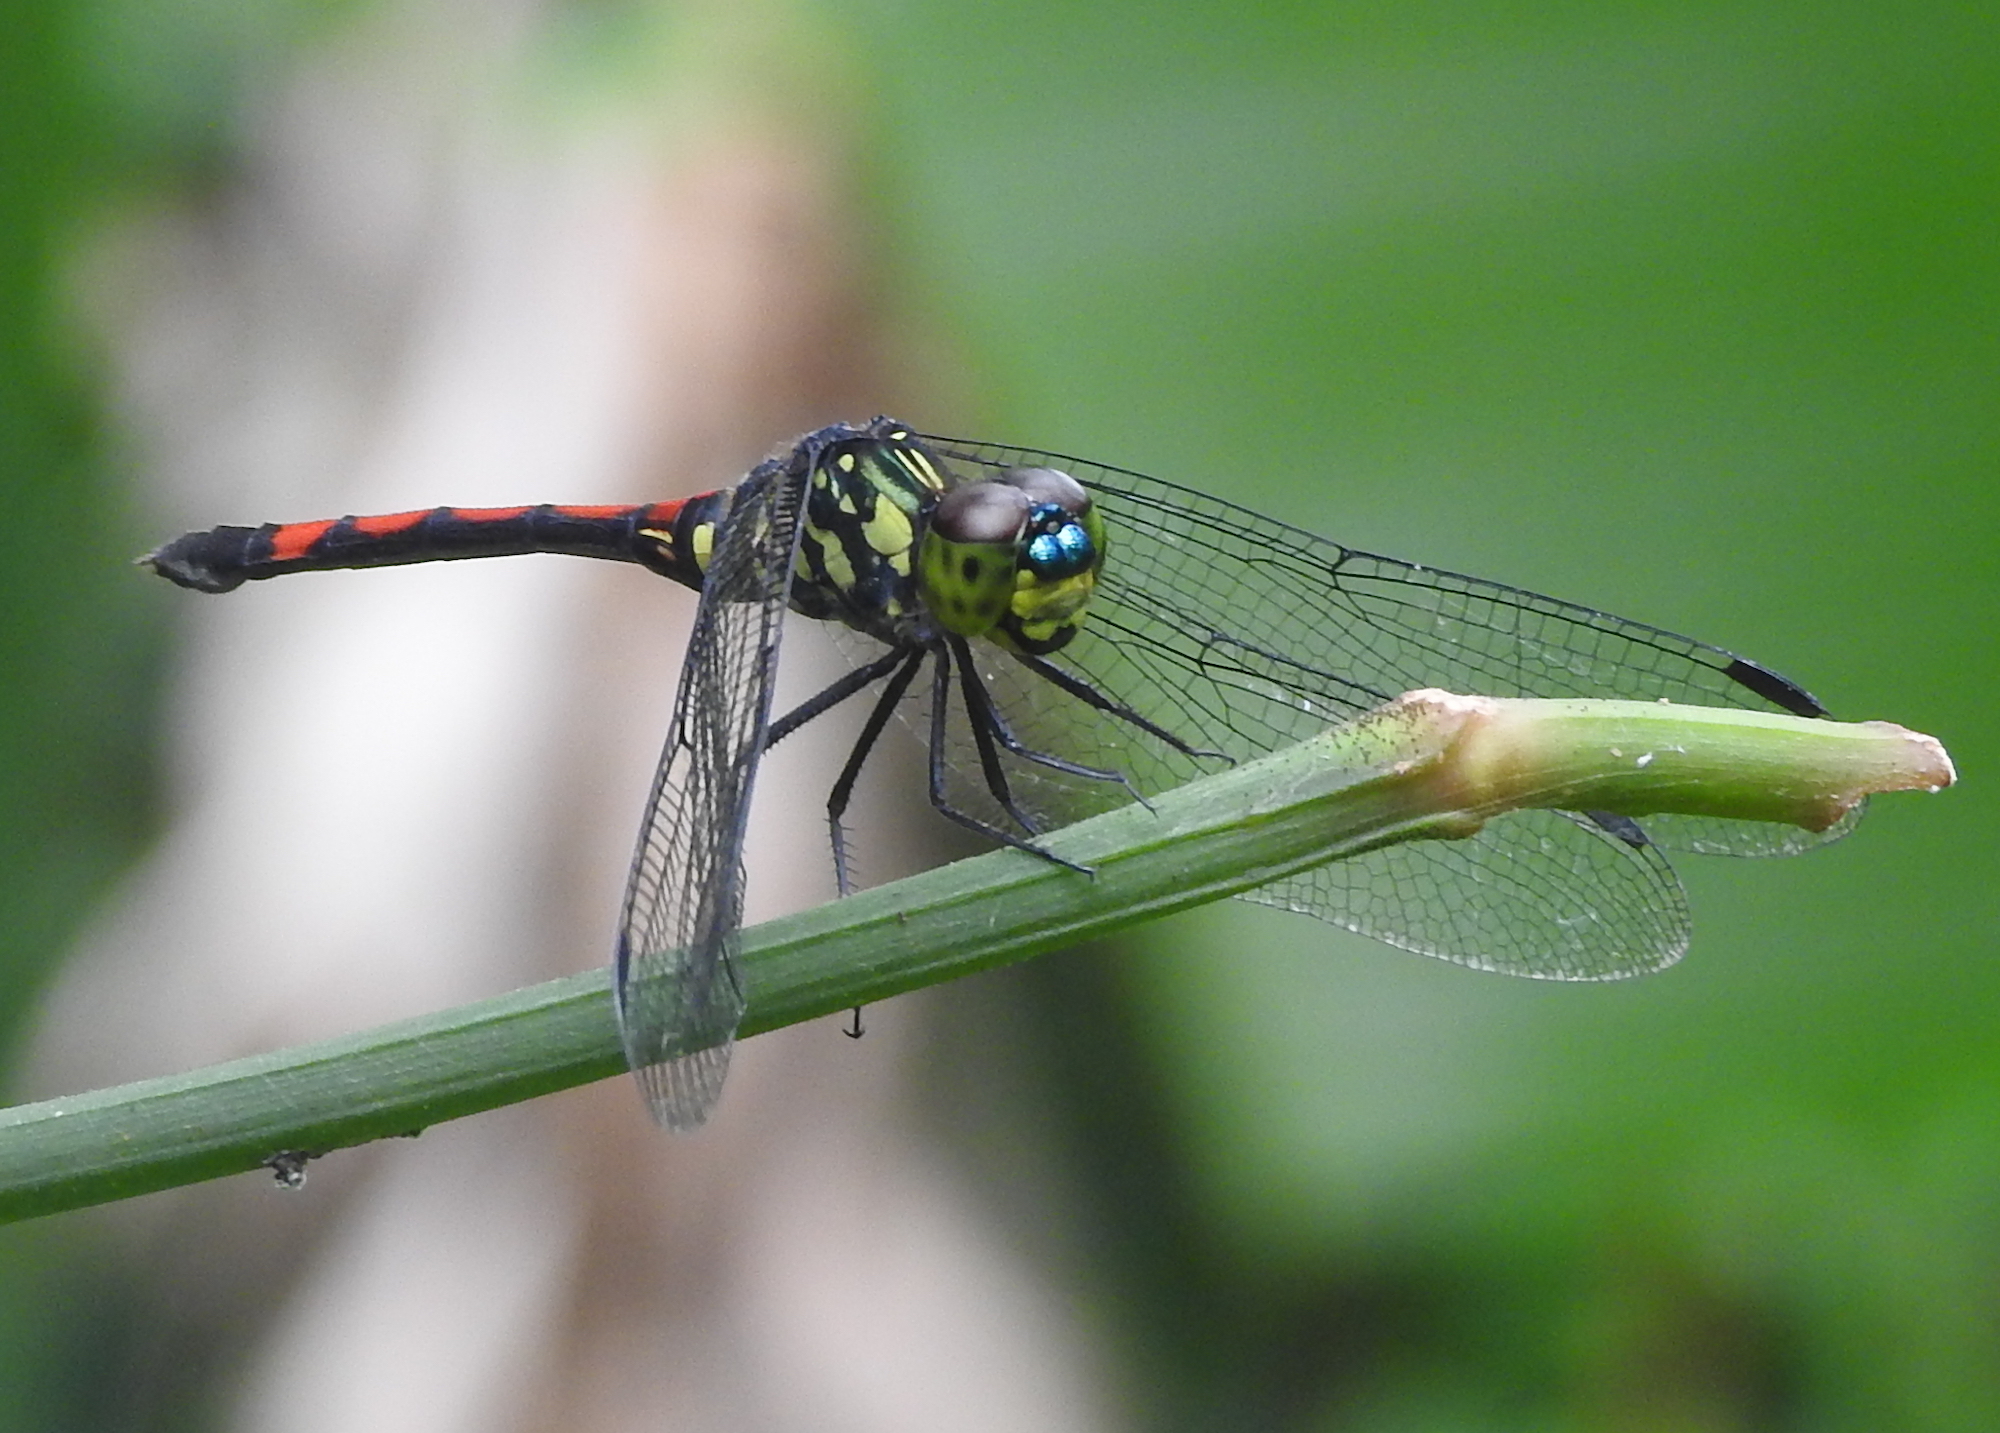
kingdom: Animalia
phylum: Arthropoda
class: Insecta
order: Odonata
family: Libellulidae
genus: Agrionoptera
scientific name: Agrionoptera insignis
